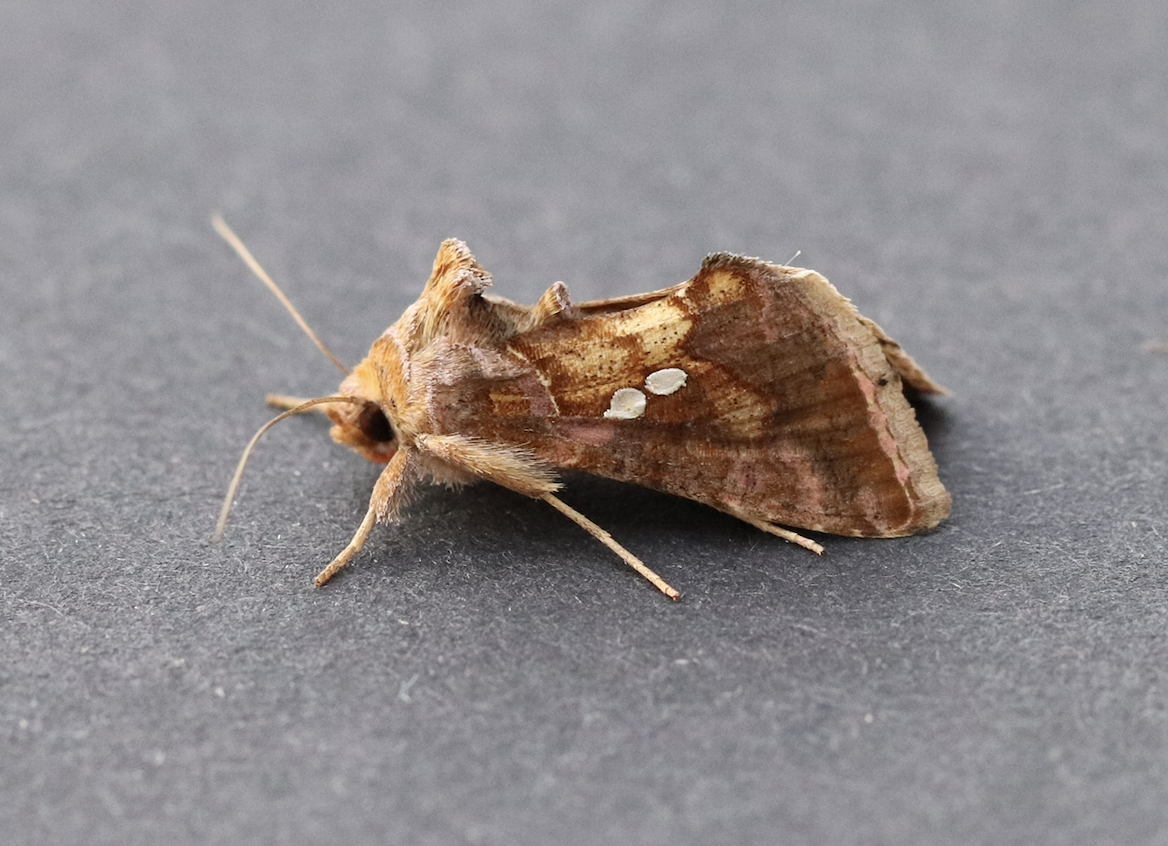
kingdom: Animalia
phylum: Arthropoda
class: Insecta
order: Lepidoptera
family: Noctuidae
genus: Chrysodeixis
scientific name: Chrysodeixis chalcites
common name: Golden twin-spot
